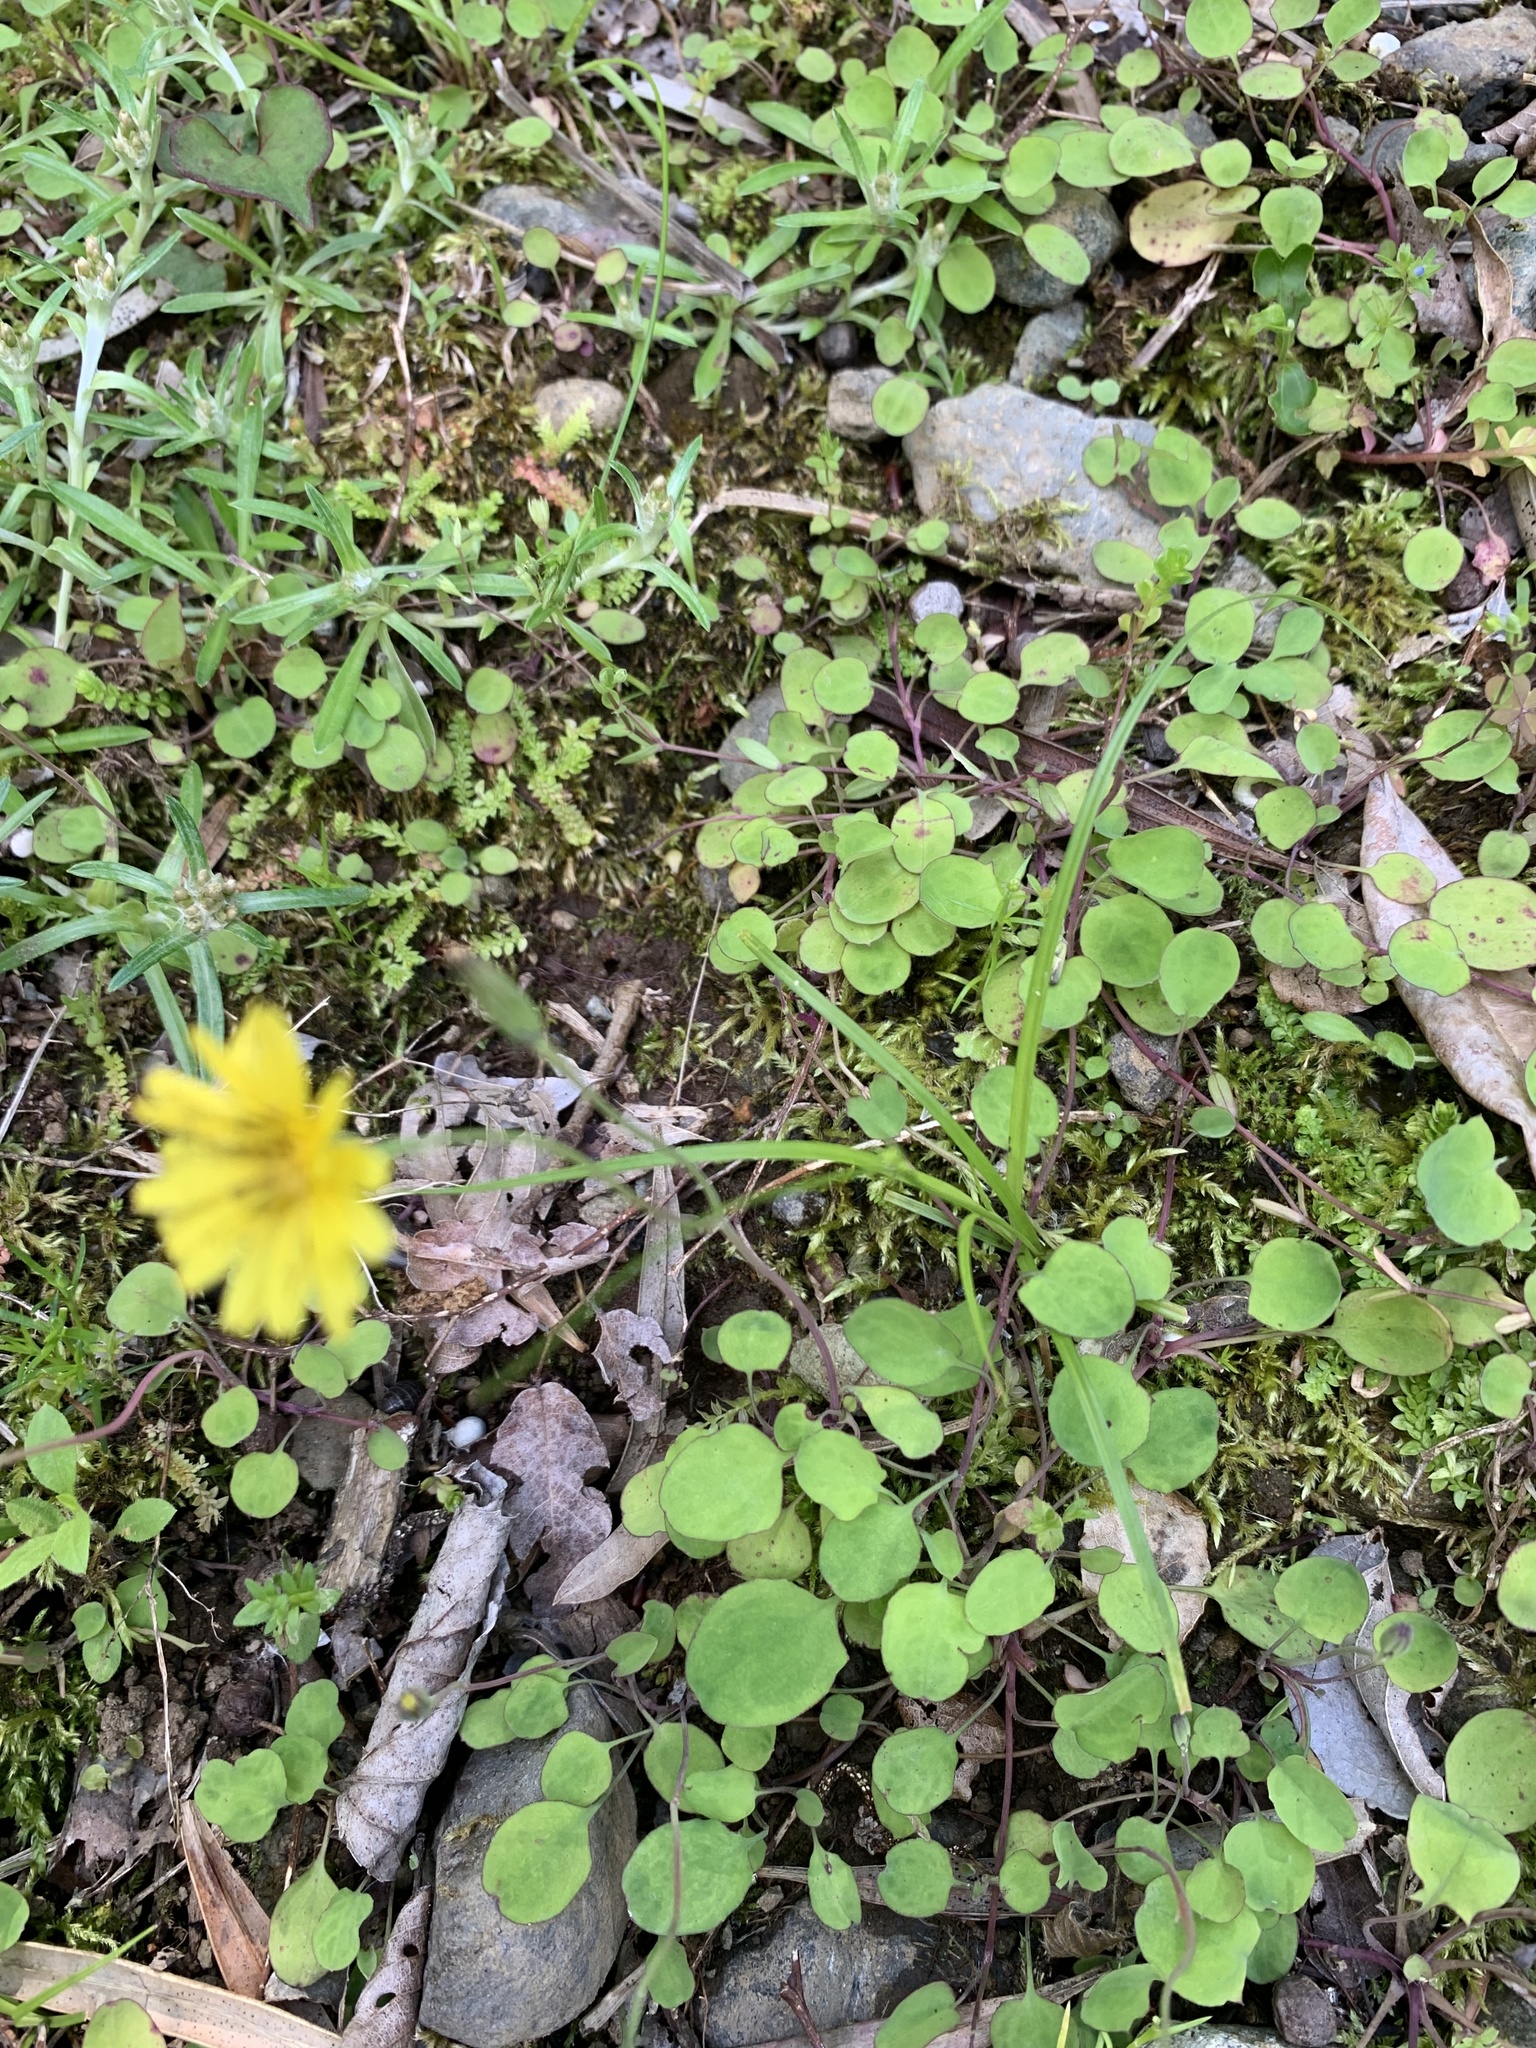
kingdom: Plantae
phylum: Tracheophyta
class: Magnoliopsida
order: Asterales
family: Asteraceae
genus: Ixeris
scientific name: Ixeris stolonifera
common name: Creeping lettuce
